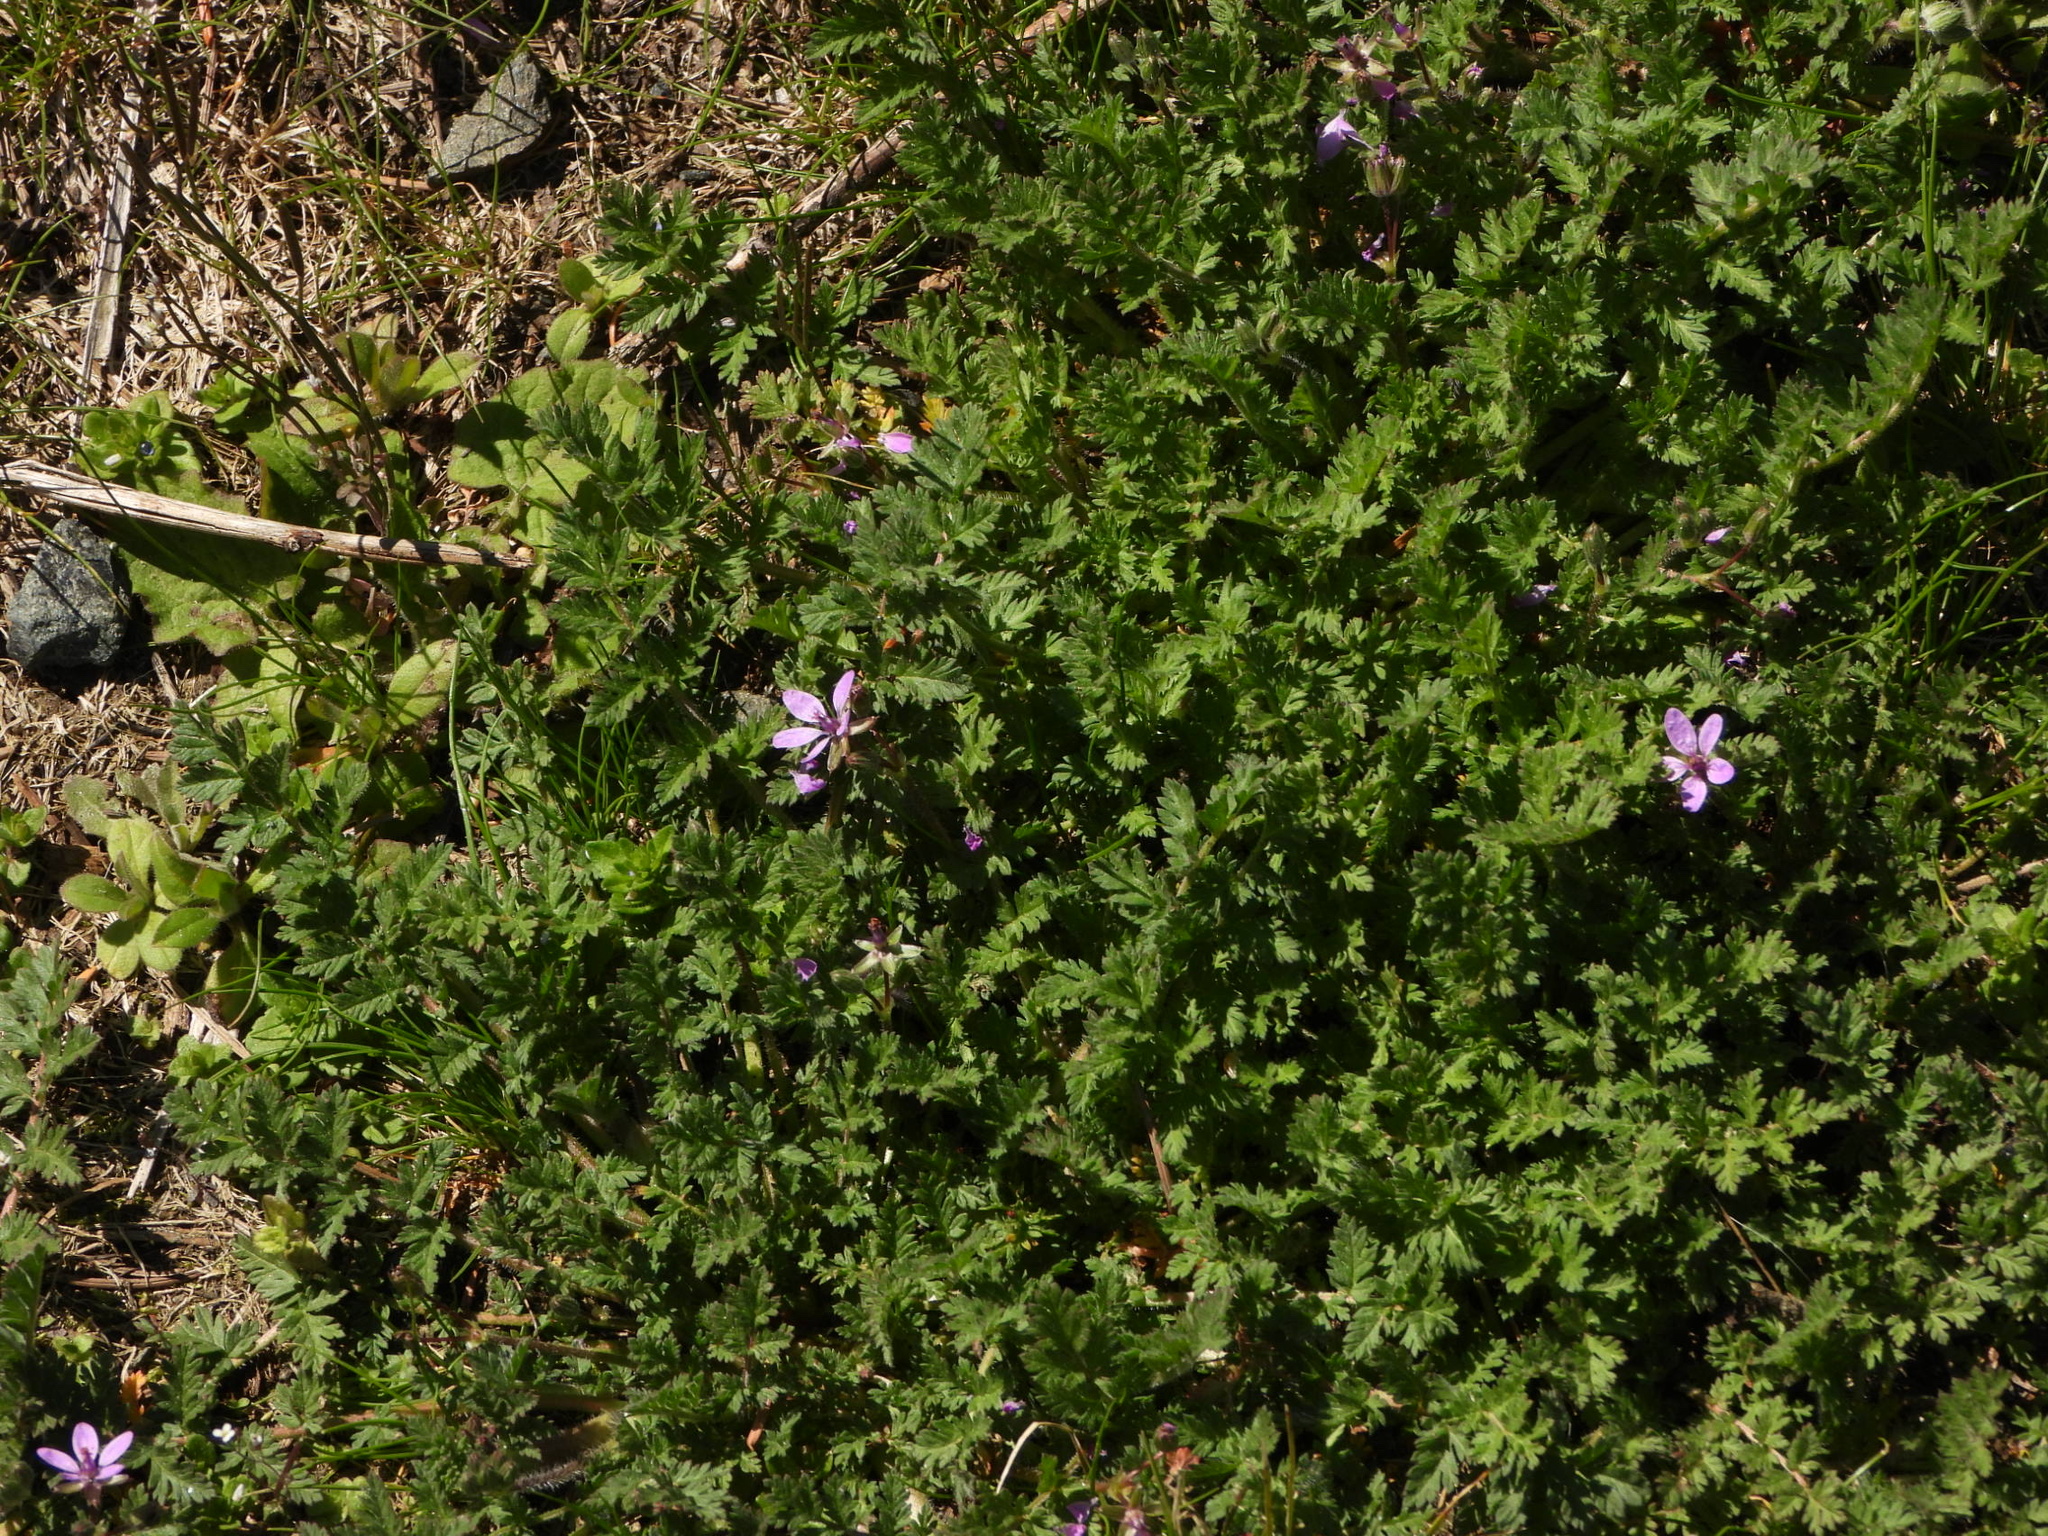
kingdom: Plantae
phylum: Tracheophyta
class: Magnoliopsida
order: Geraniales
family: Geraniaceae
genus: Erodium
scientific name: Erodium cicutarium
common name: Common stork's-bill
